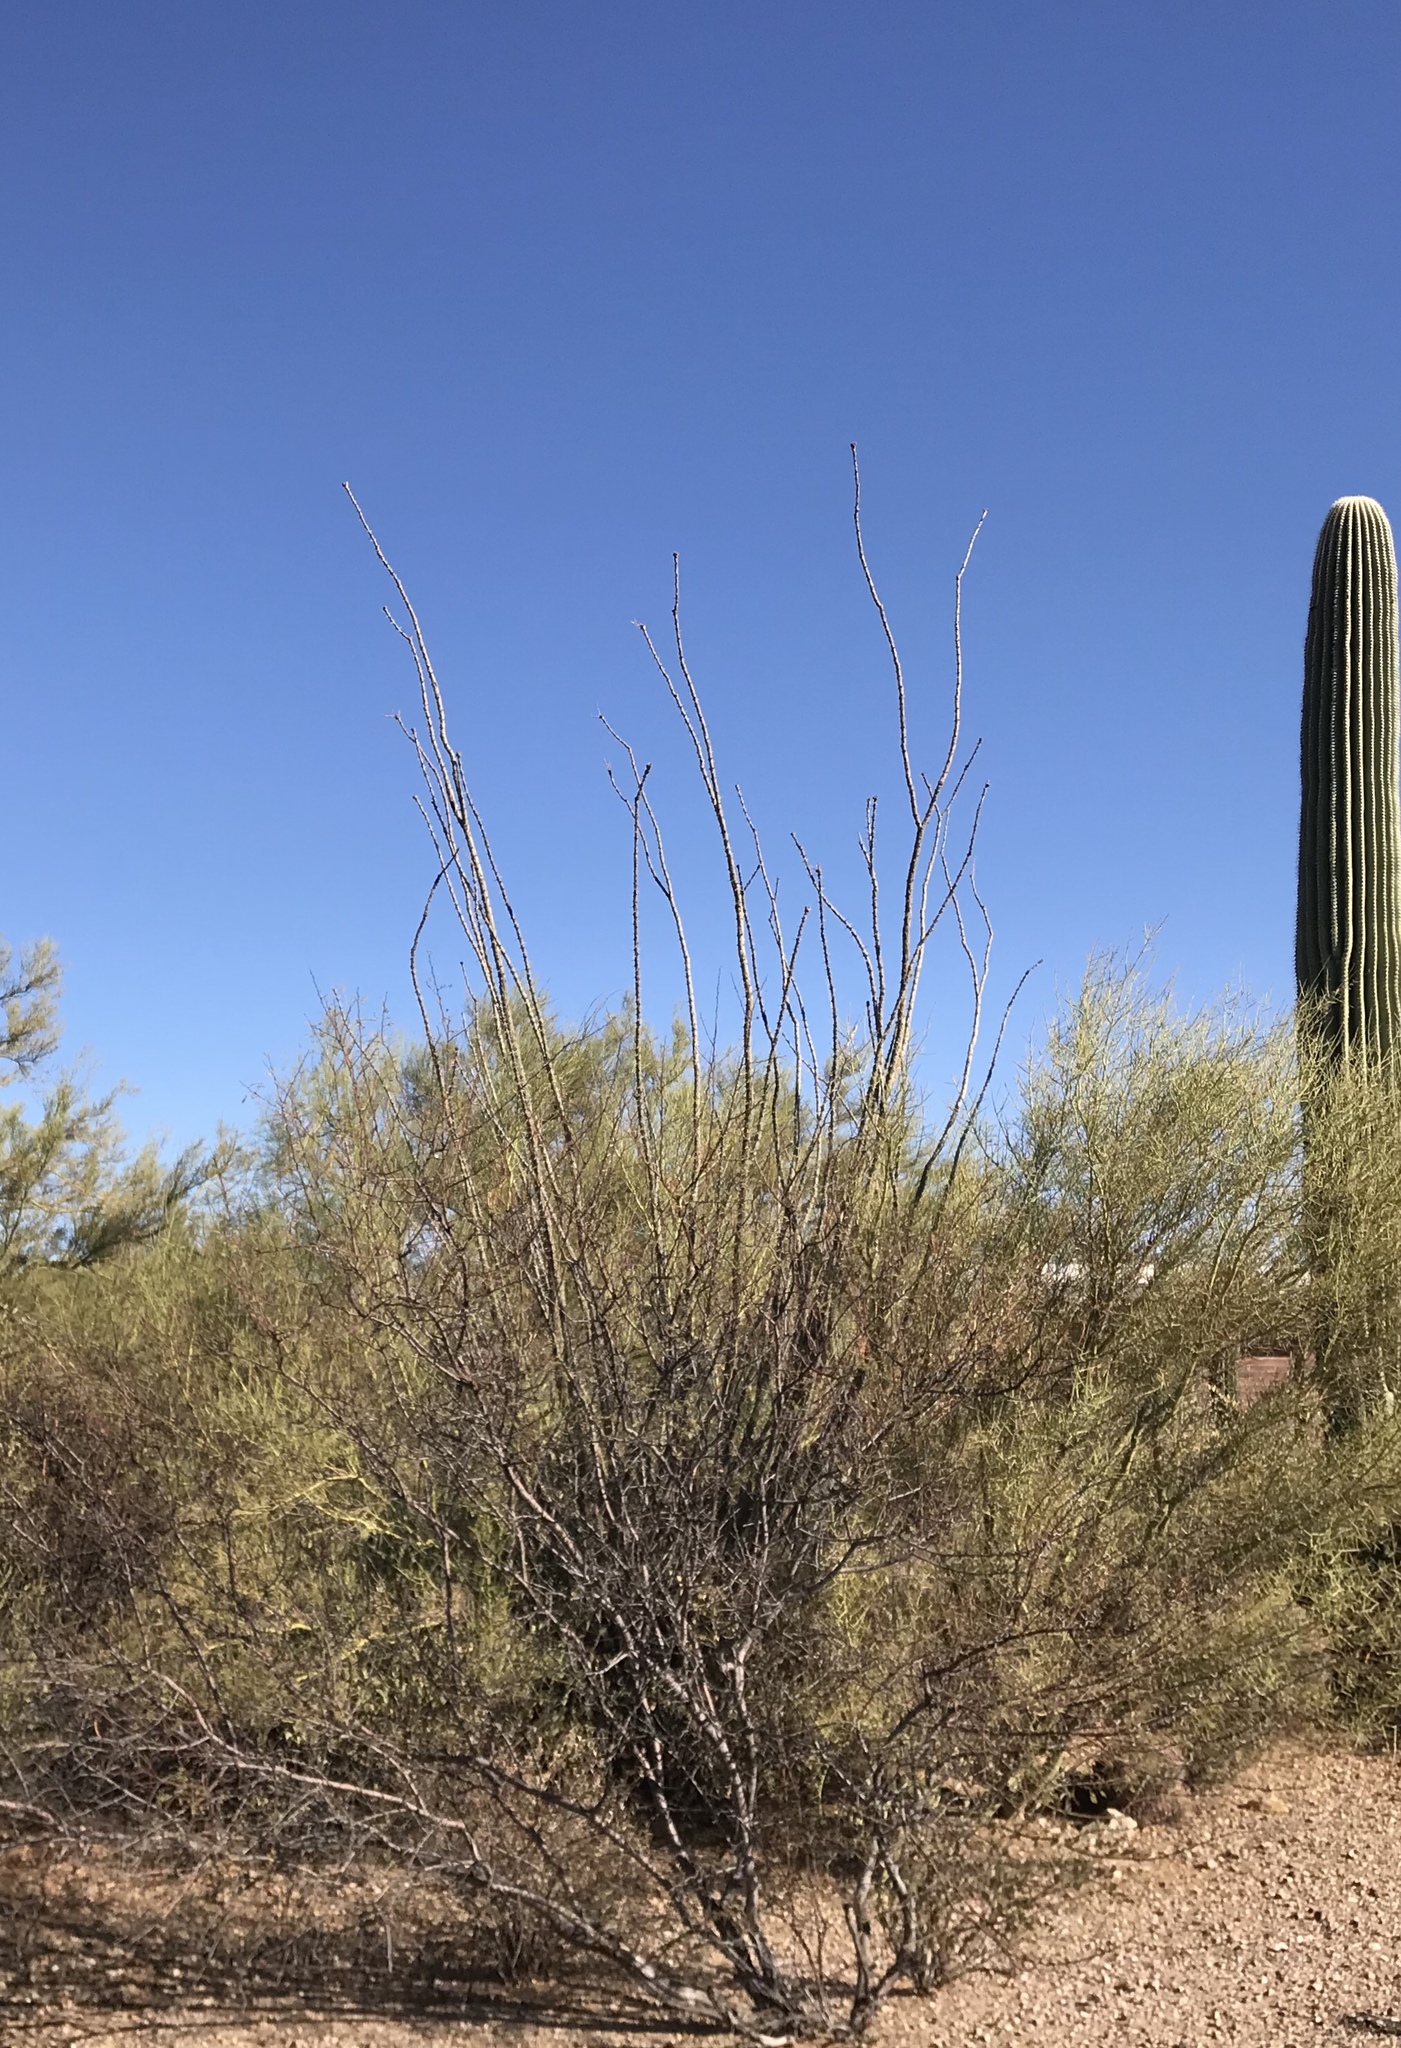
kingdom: Plantae
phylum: Tracheophyta
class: Magnoliopsida
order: Ericales
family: Fouquieriaceae
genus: Fouquieria
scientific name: Fouquieria splendens
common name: Vine-cactus
